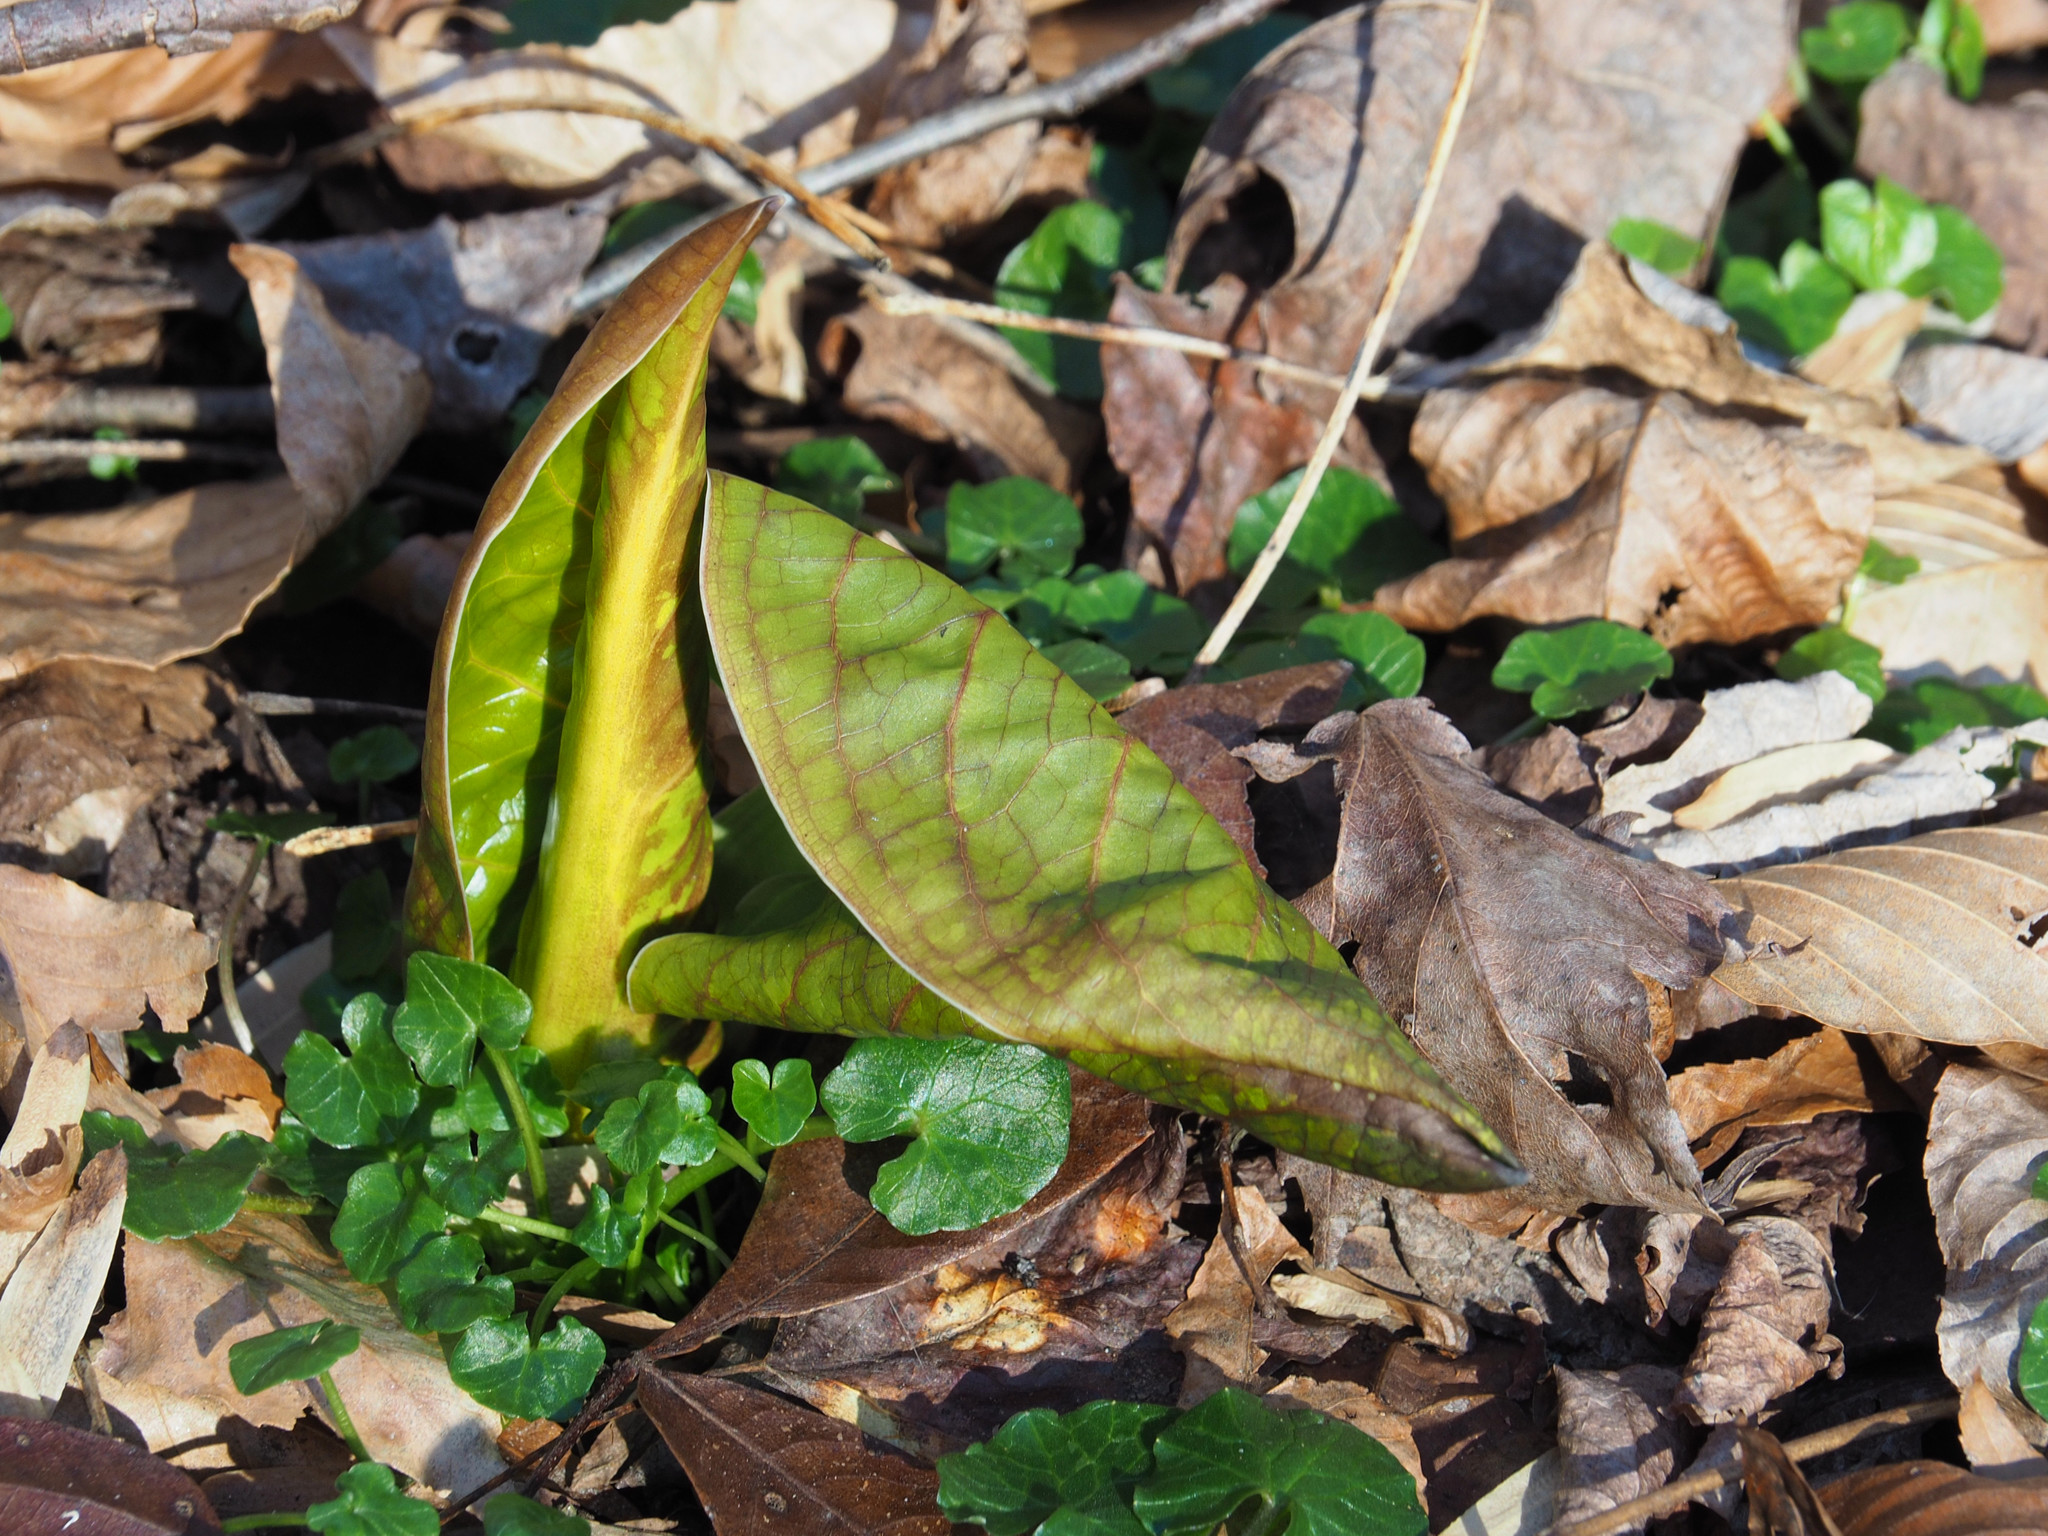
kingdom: Plantae
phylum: Tracheophyta
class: Liliopsida
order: Alismatales
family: Araceae
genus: Symplocarpus
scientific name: Symplocarpus foetidus
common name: Eastern skunk cabbage
